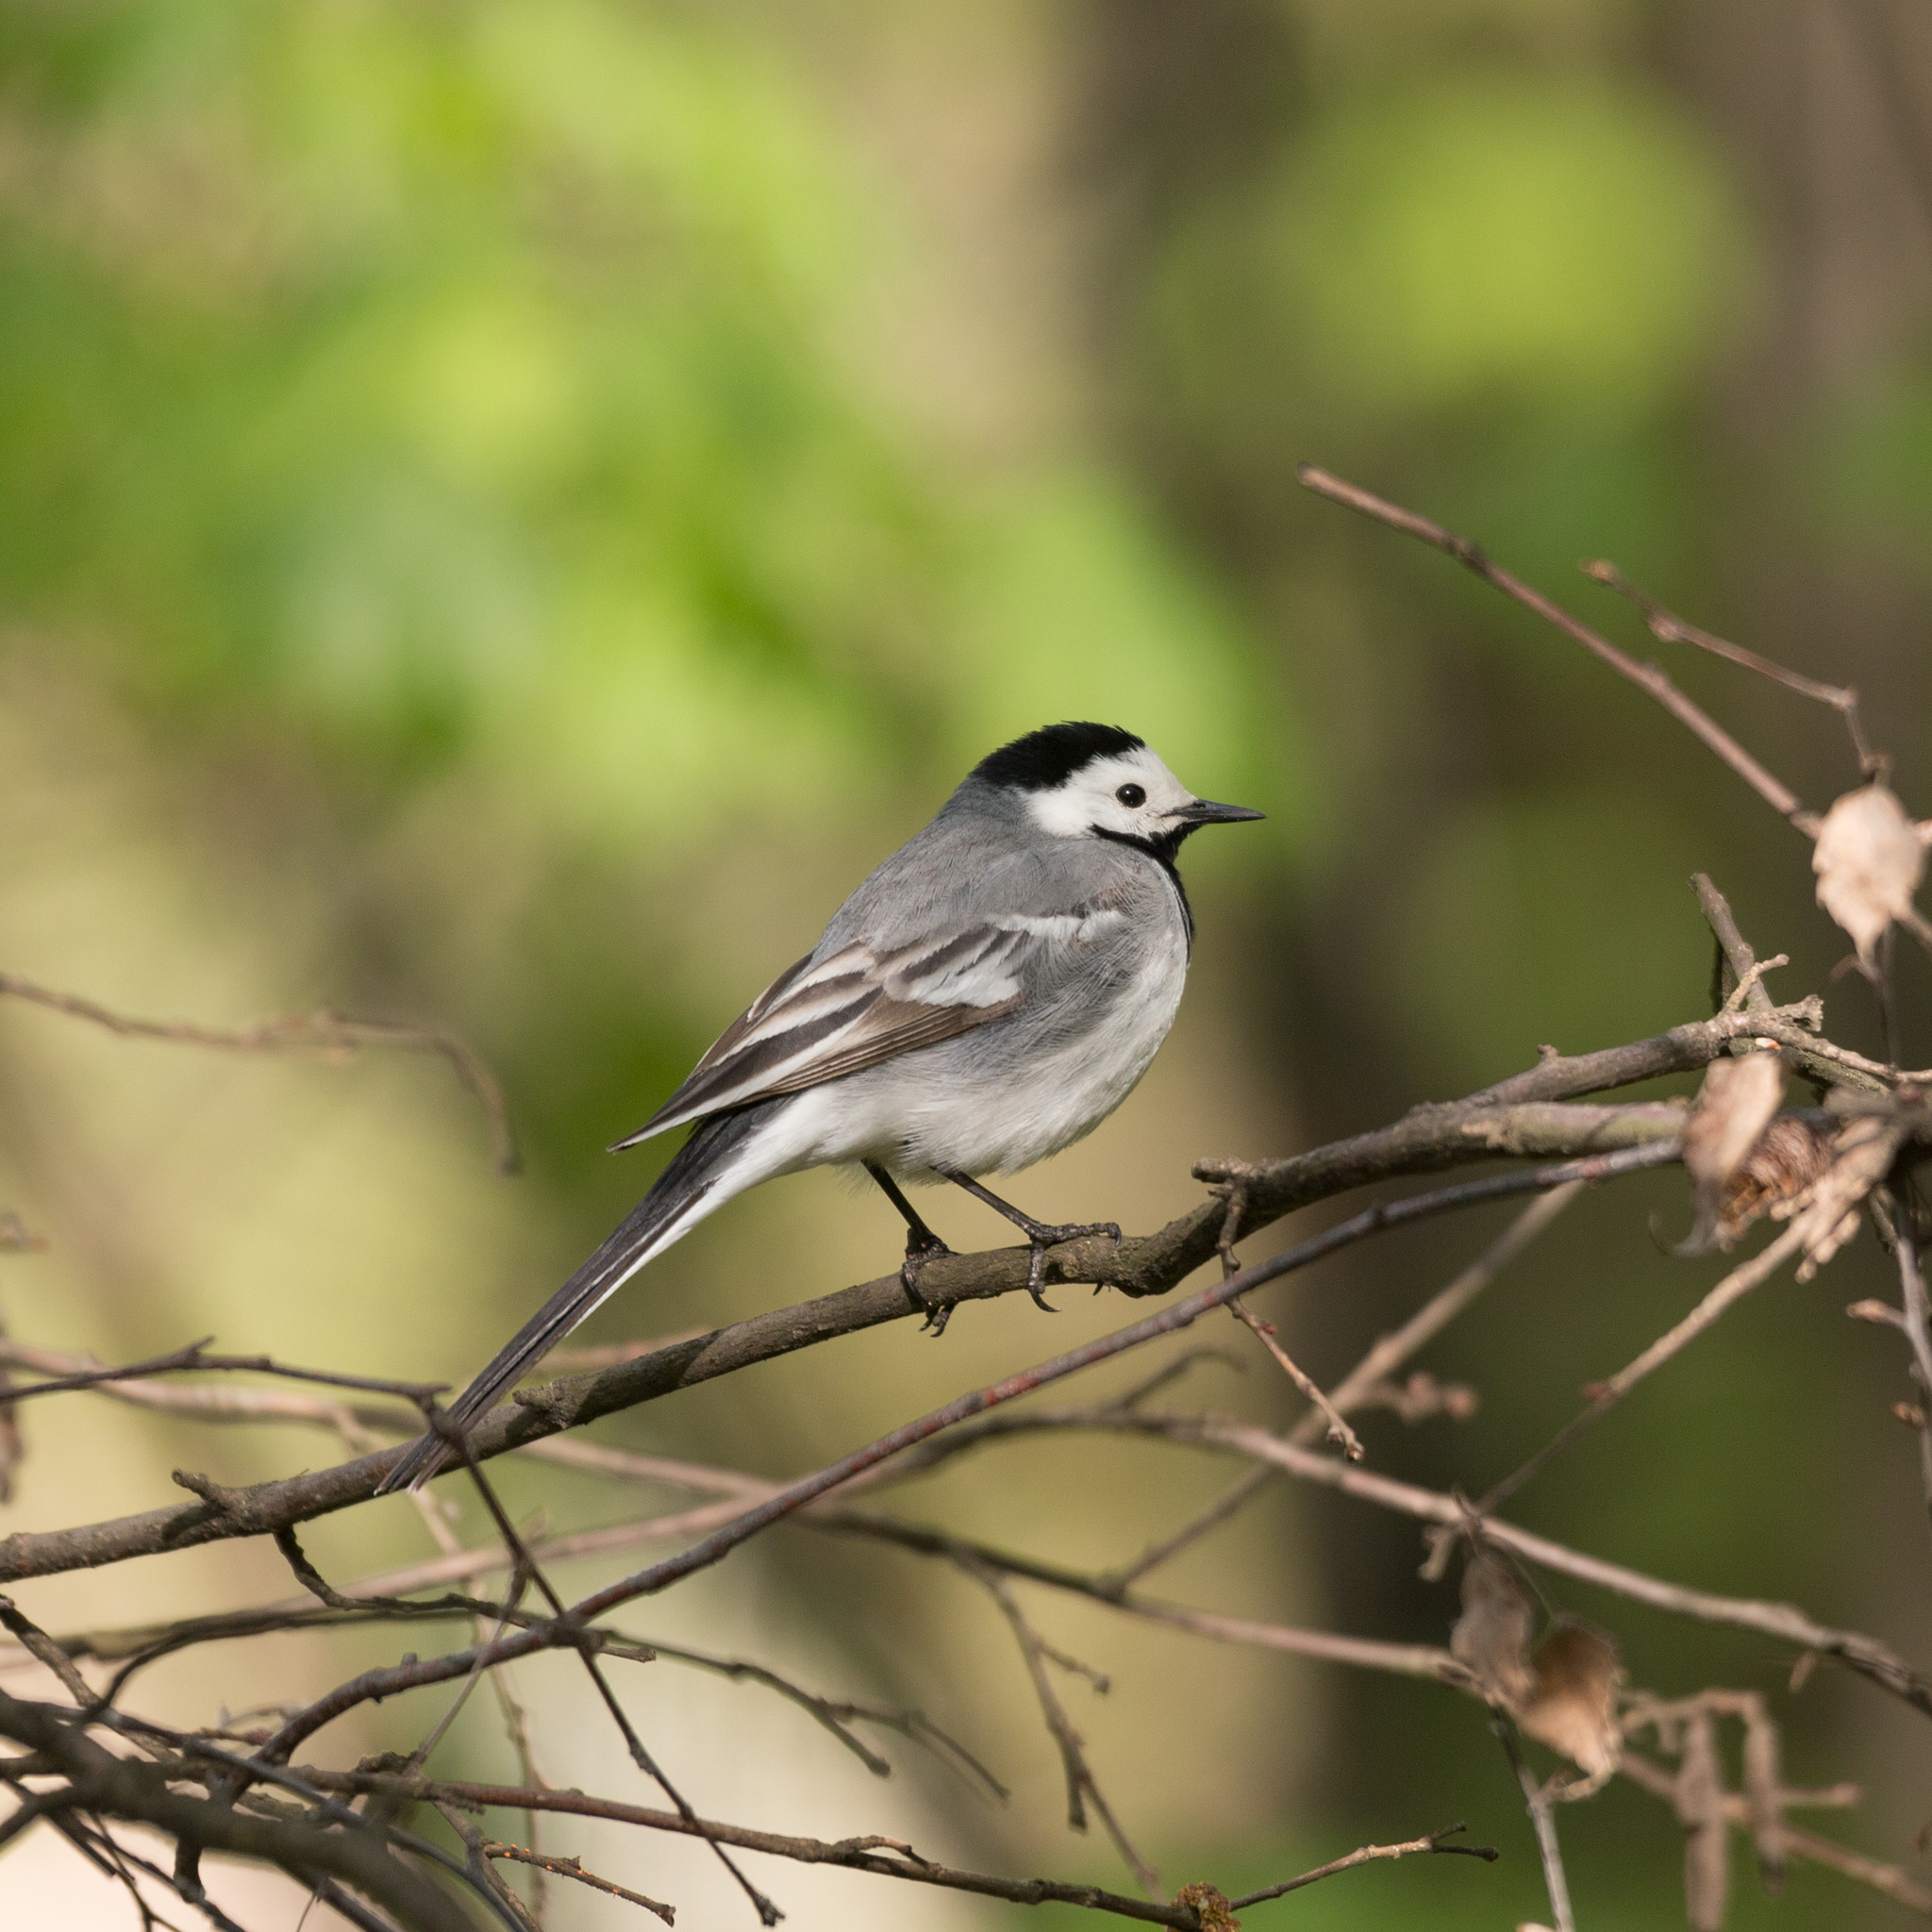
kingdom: Animalia
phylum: Chordata
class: Aves
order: Passeriformes
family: Motacillidae
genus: Motacilla
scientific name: Motacilla alba
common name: White wagtail
